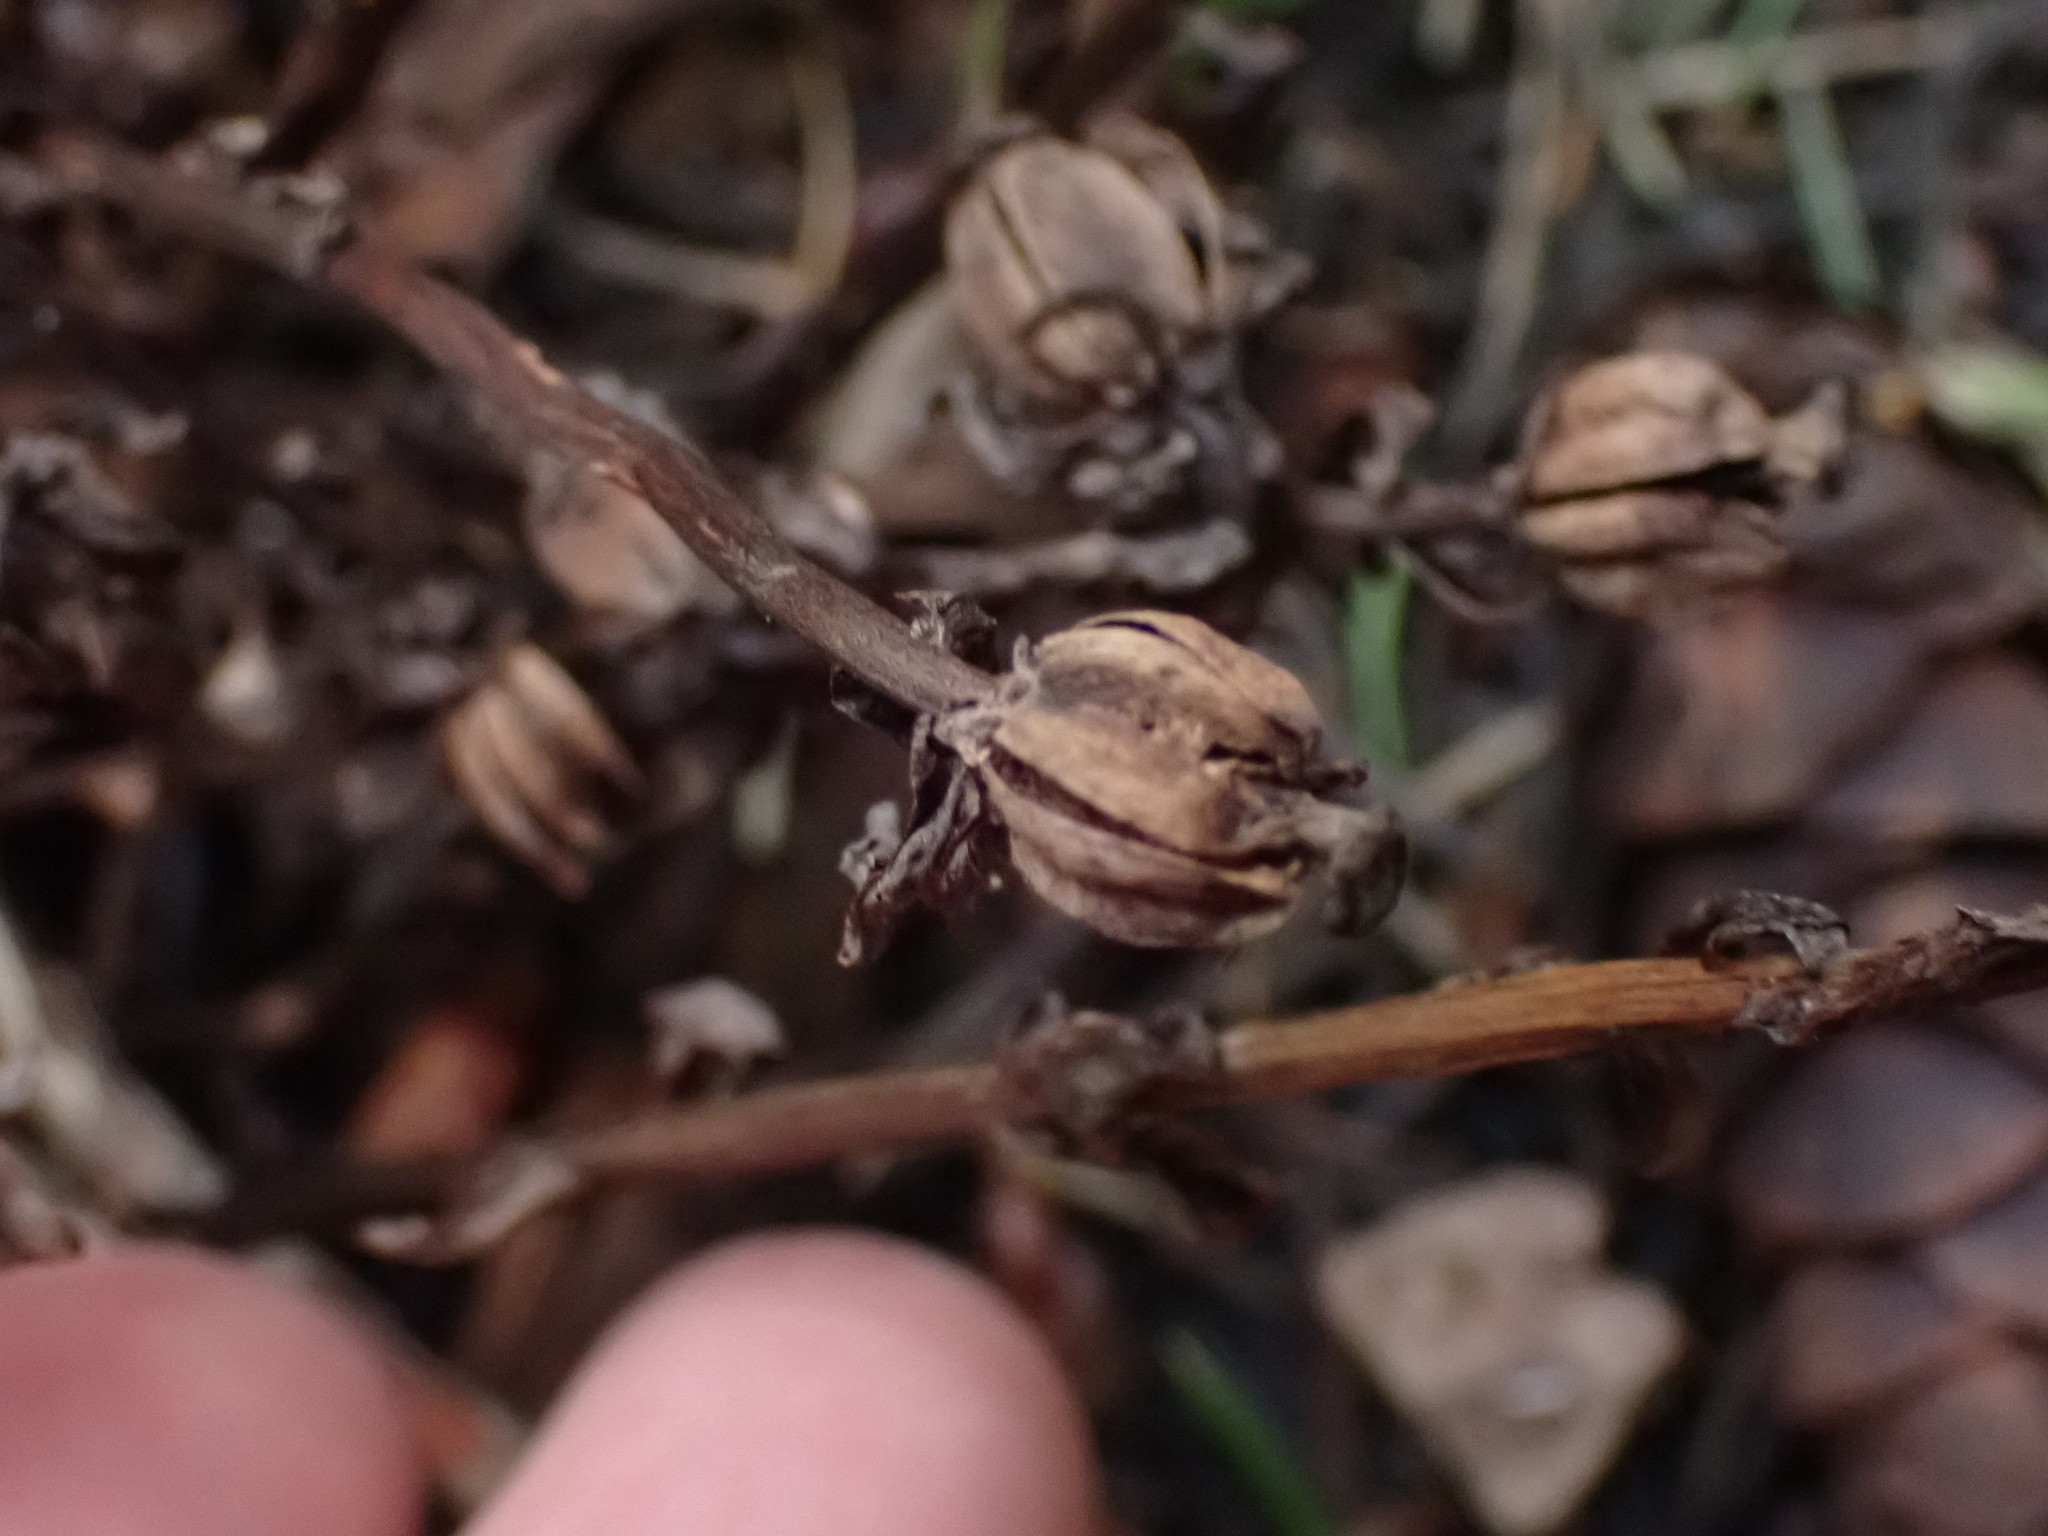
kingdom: Plantae
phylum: Tracheophyta
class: Magnoliopsida
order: Ericales
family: Ericaceae
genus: Monotropa
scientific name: Monotropa uniflora
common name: Convulsion root
